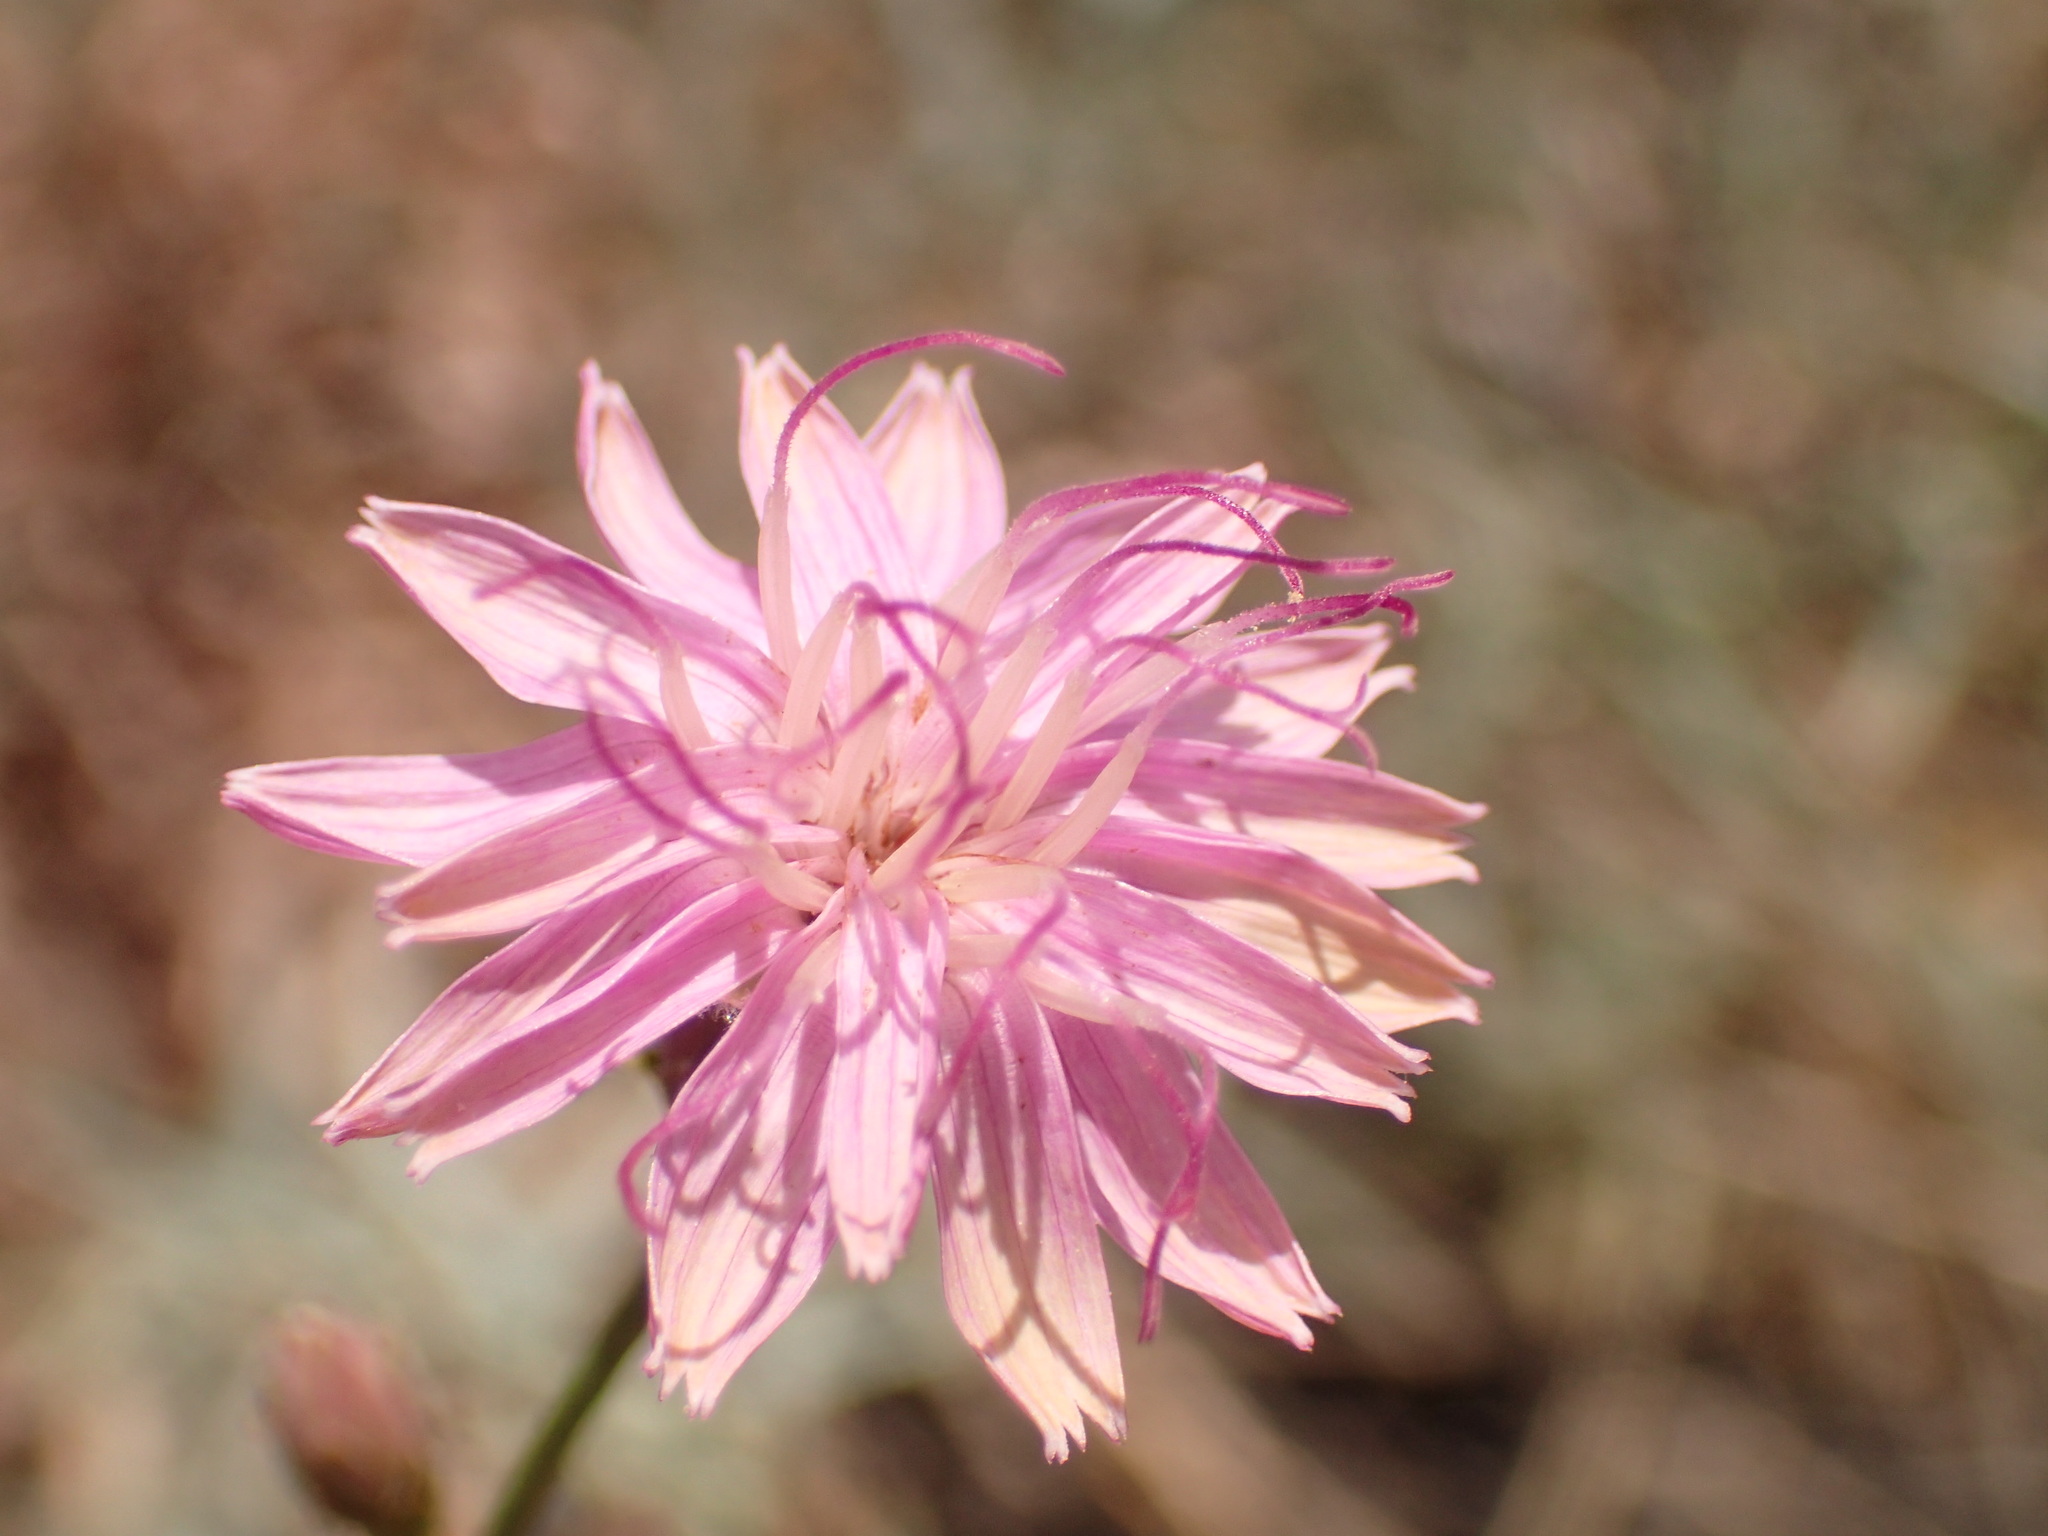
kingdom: Plantae
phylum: Tracheophyta
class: Magnoliopsida
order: Asterales
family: Asteraceae
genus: Stephanomeria
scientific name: Stephanomeria cichoriacea
